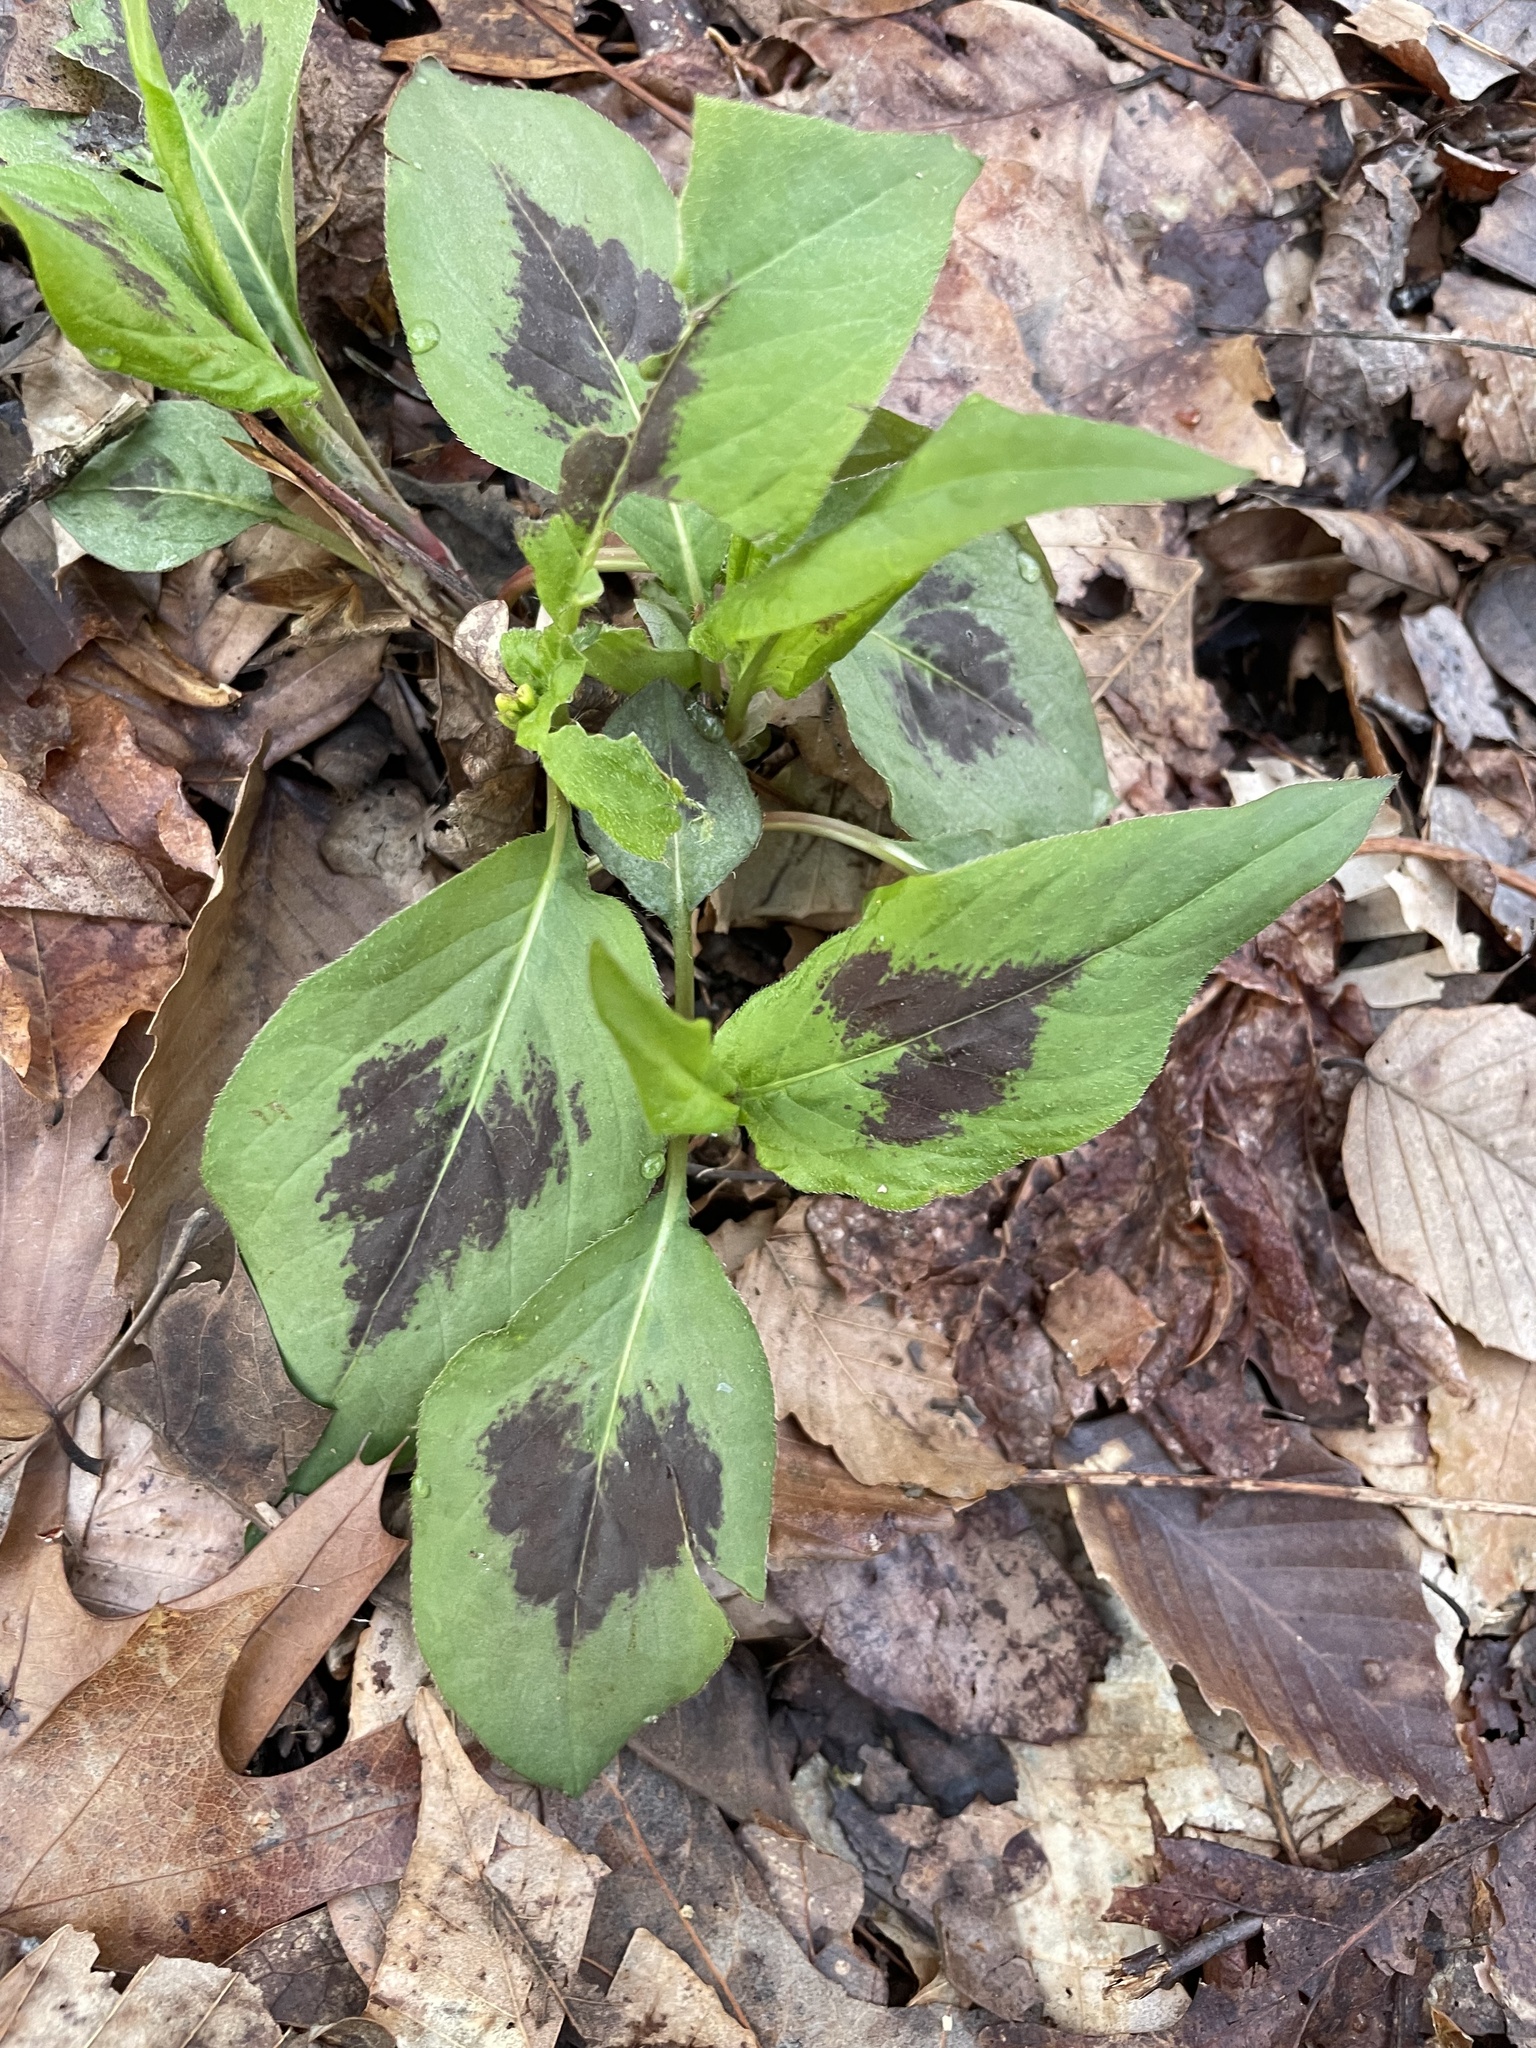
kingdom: Plantae
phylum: Tracheophyta
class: Magnoliopsida
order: Caryophyllales
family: Polygonaceae
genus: Persicaria
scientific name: Persicaria virginiana
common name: Jumpseed
